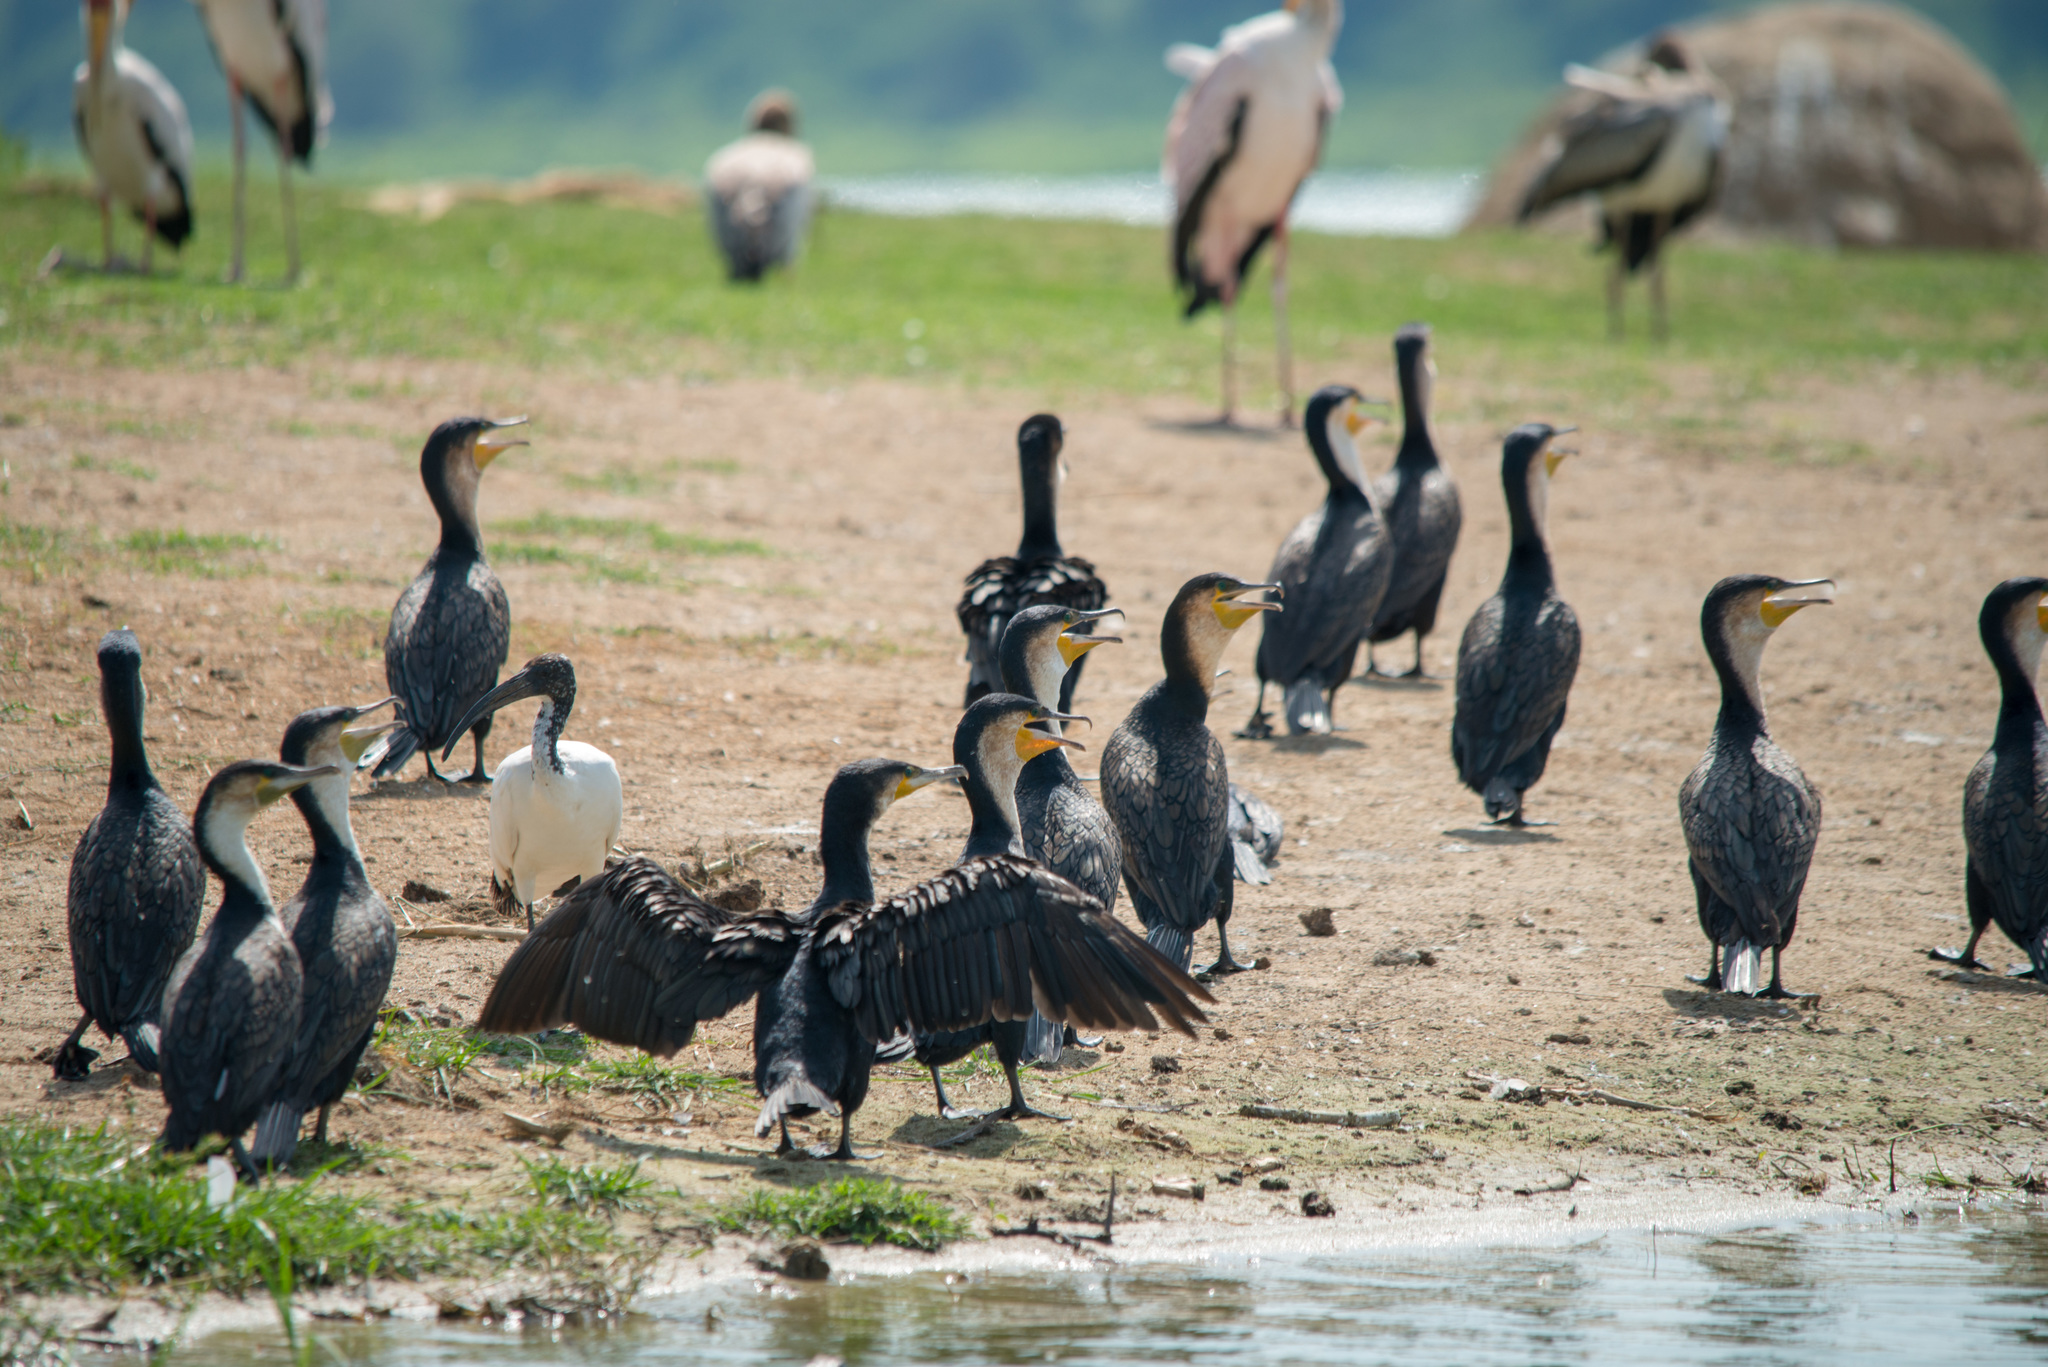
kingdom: Animalia
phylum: Chordata
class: Aves
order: Suliformes
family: Phalacrocoracidae
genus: Phalacrocorax
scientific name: Phalacrocorax carbo
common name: Great cormorant
